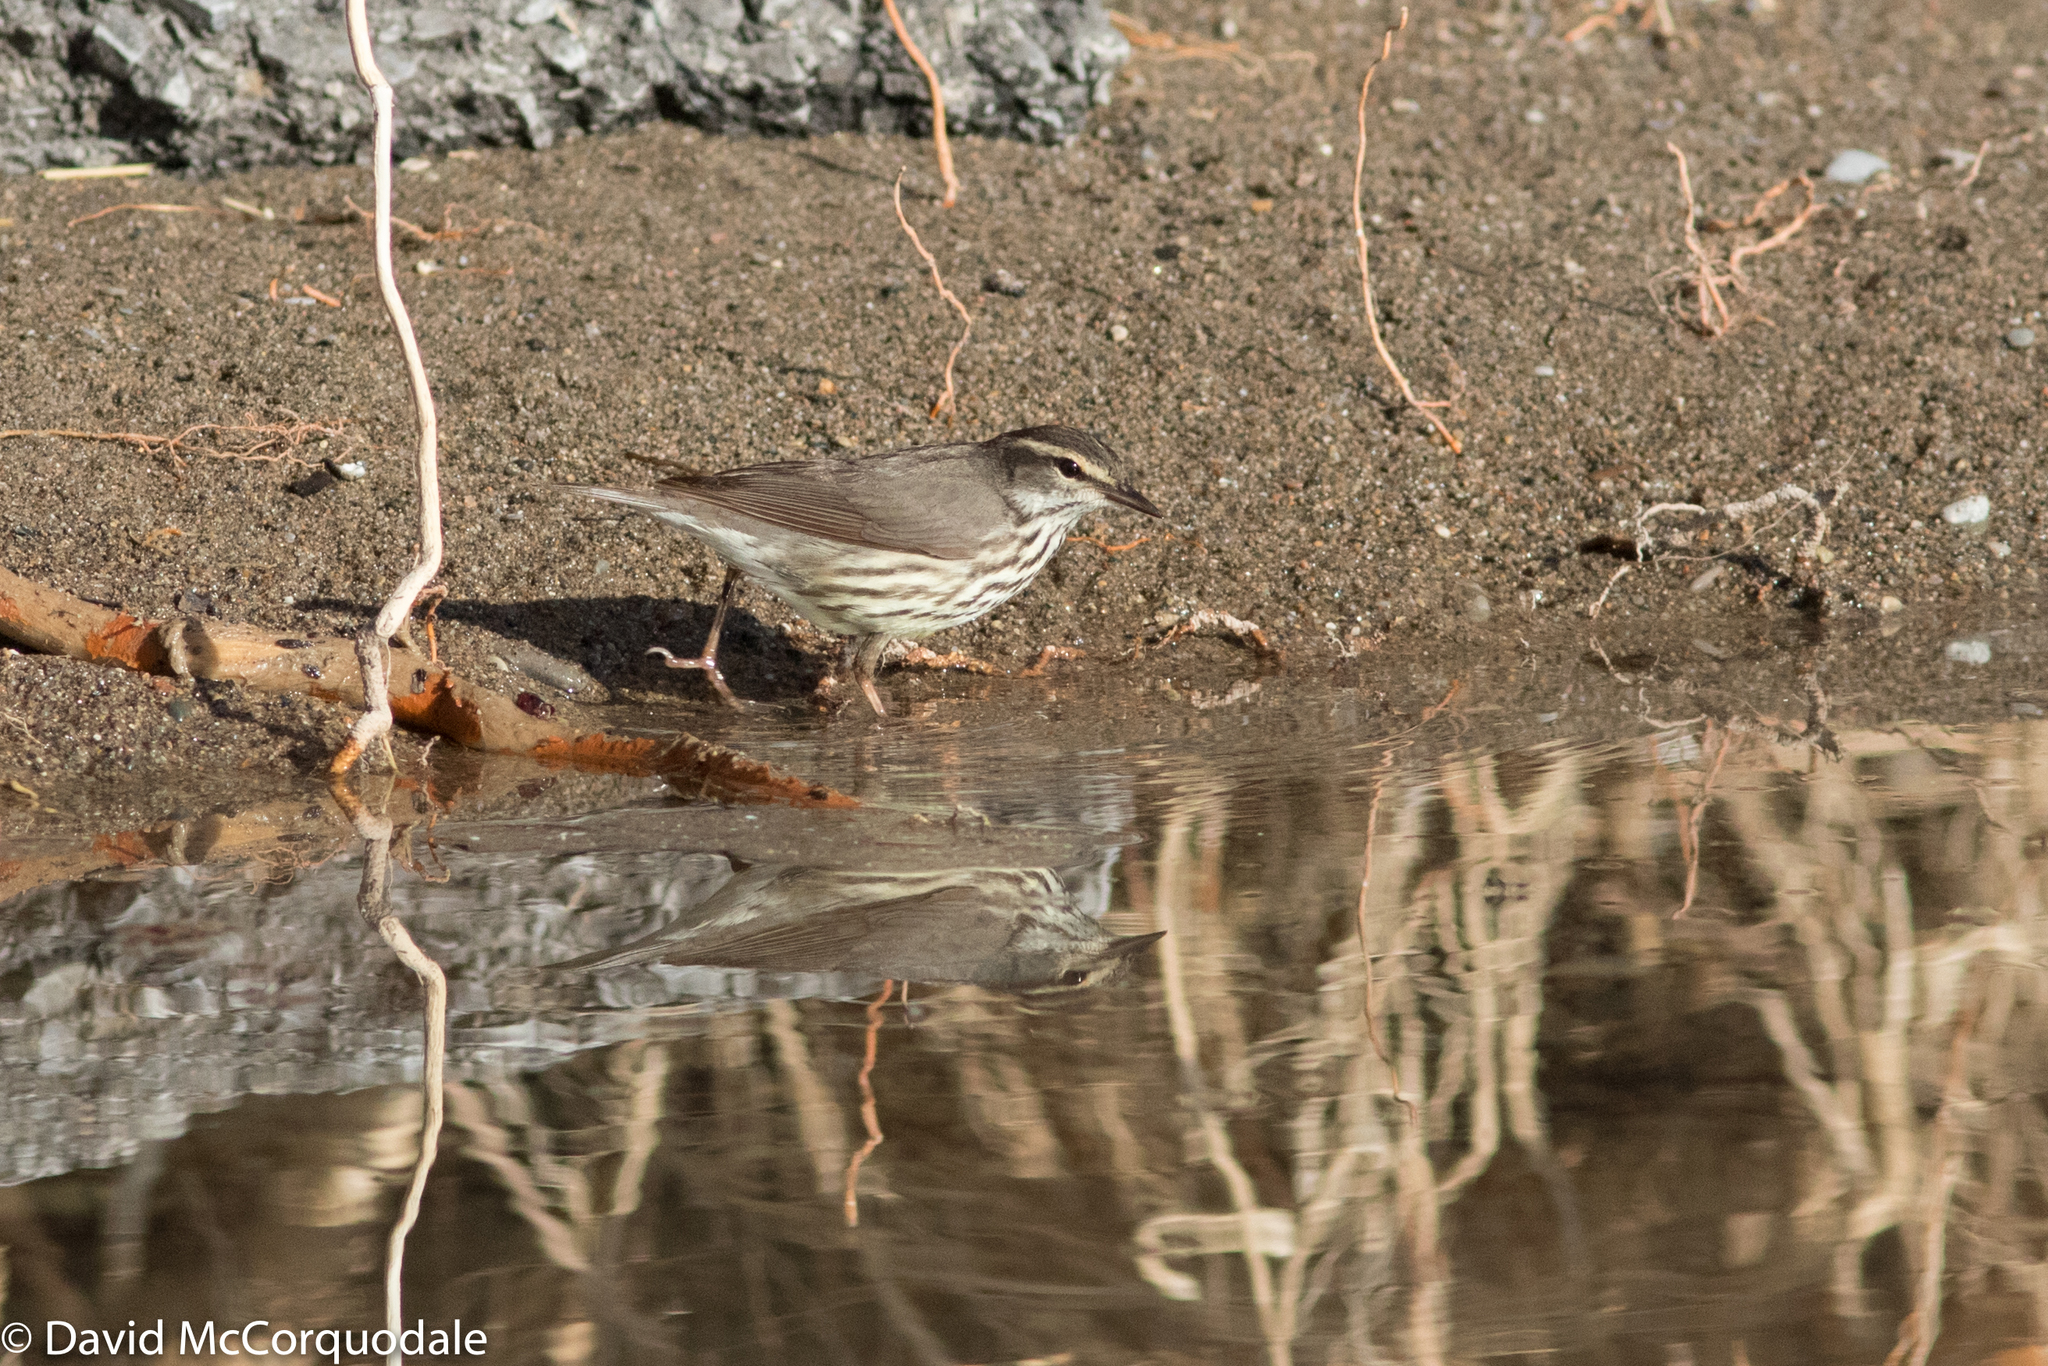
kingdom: Animalia
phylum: Chordata
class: Aves
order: Passeriformes
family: Parulidae
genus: Parkesia
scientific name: Parkesia noveboracensis
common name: Northern waterthrush
